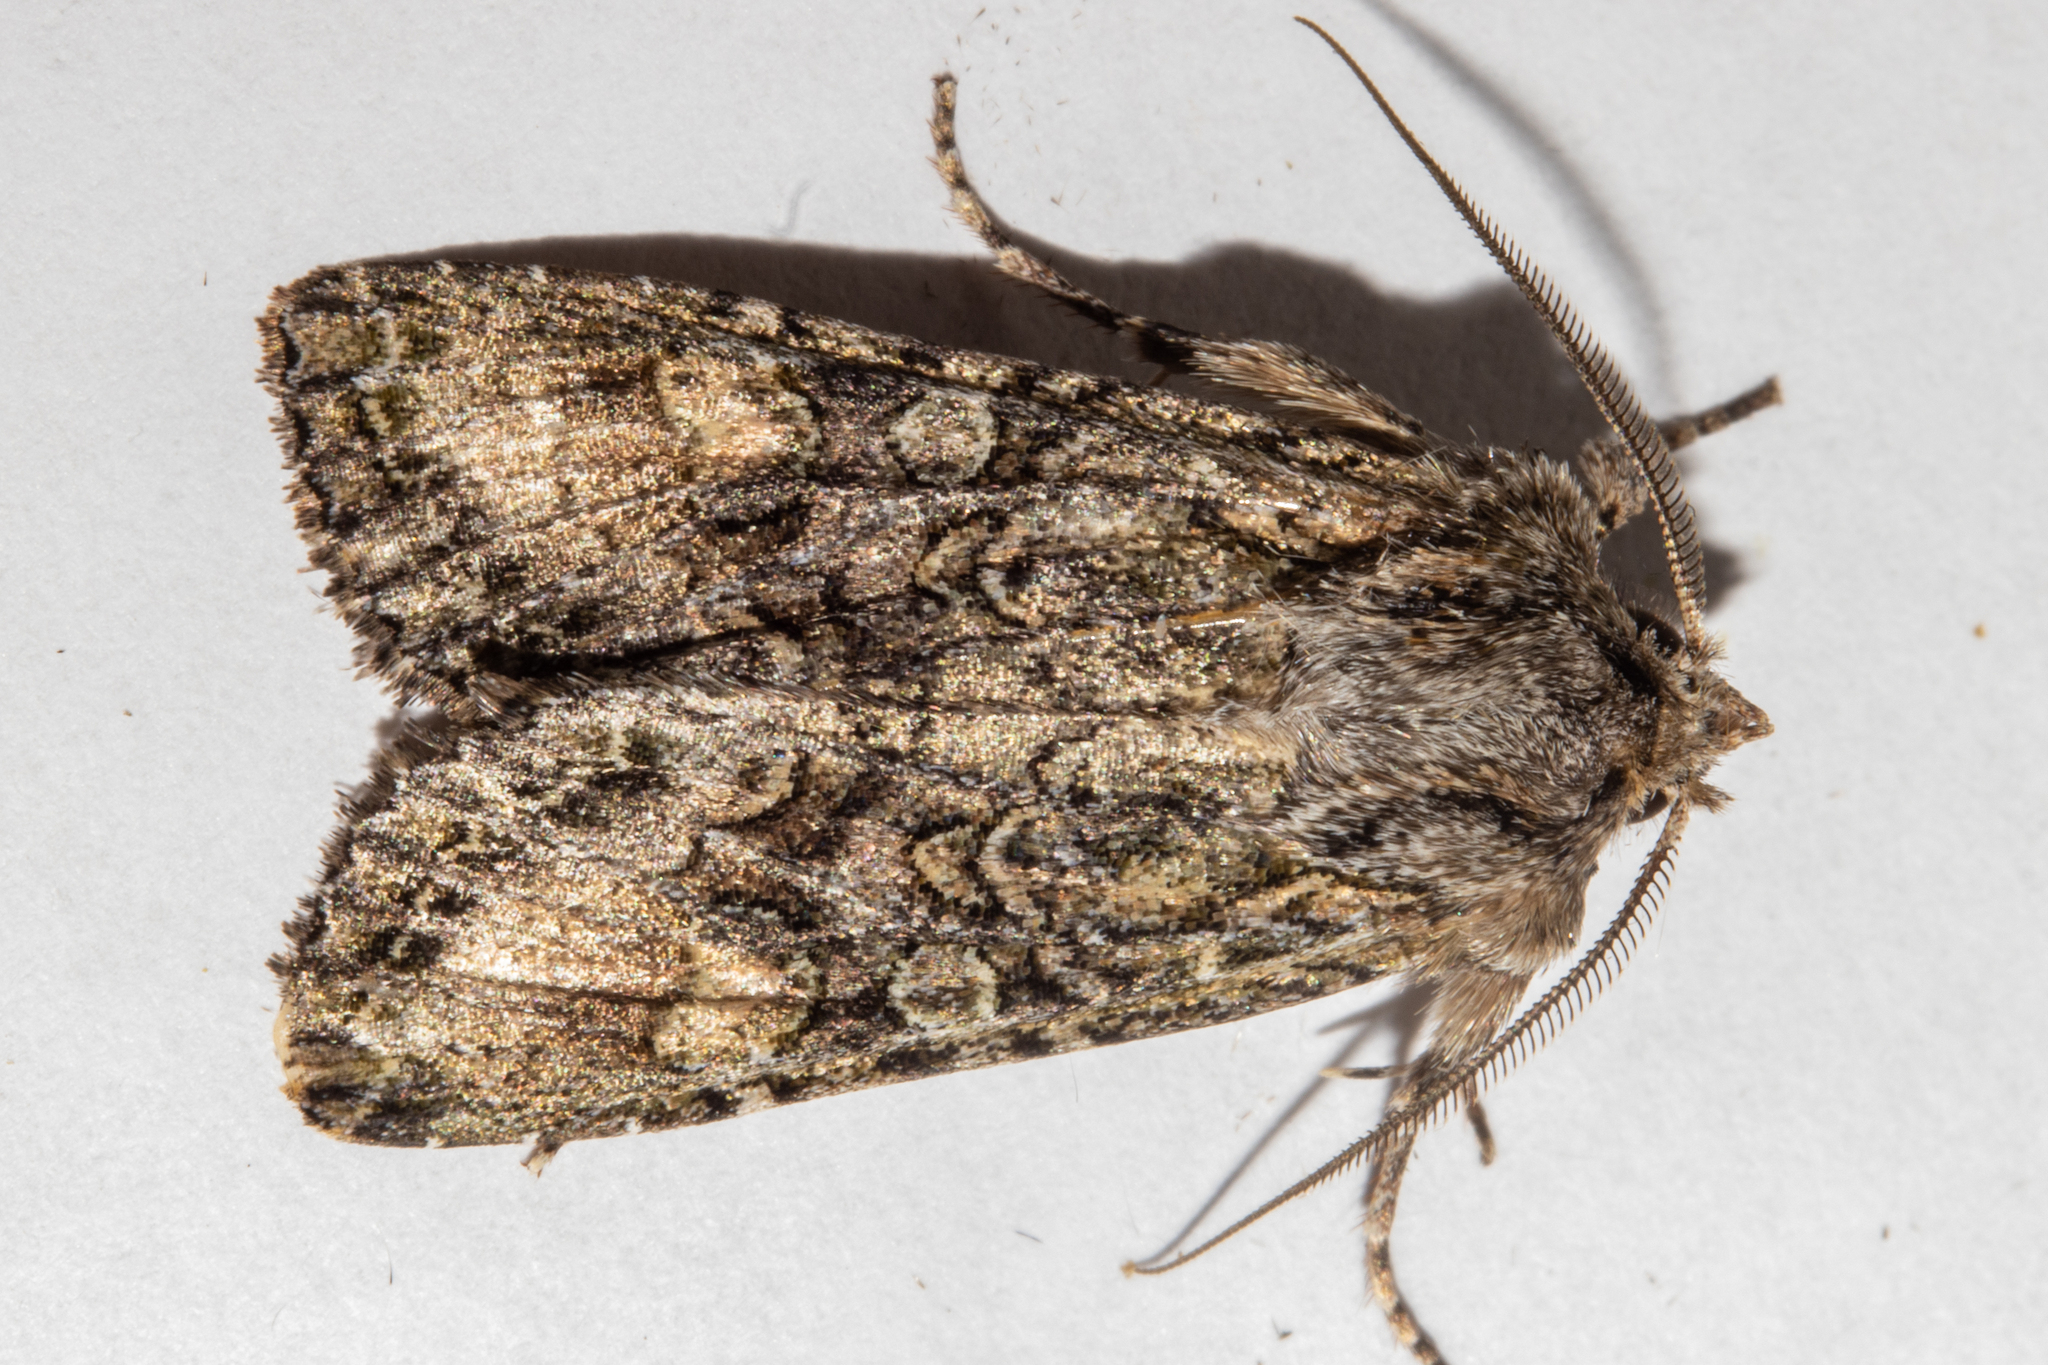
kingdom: Animalia
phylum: Arthropoda
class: Insecta
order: Lepidoptera
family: Noctuidae
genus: Ichneutica
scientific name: Ichneutica mutans
